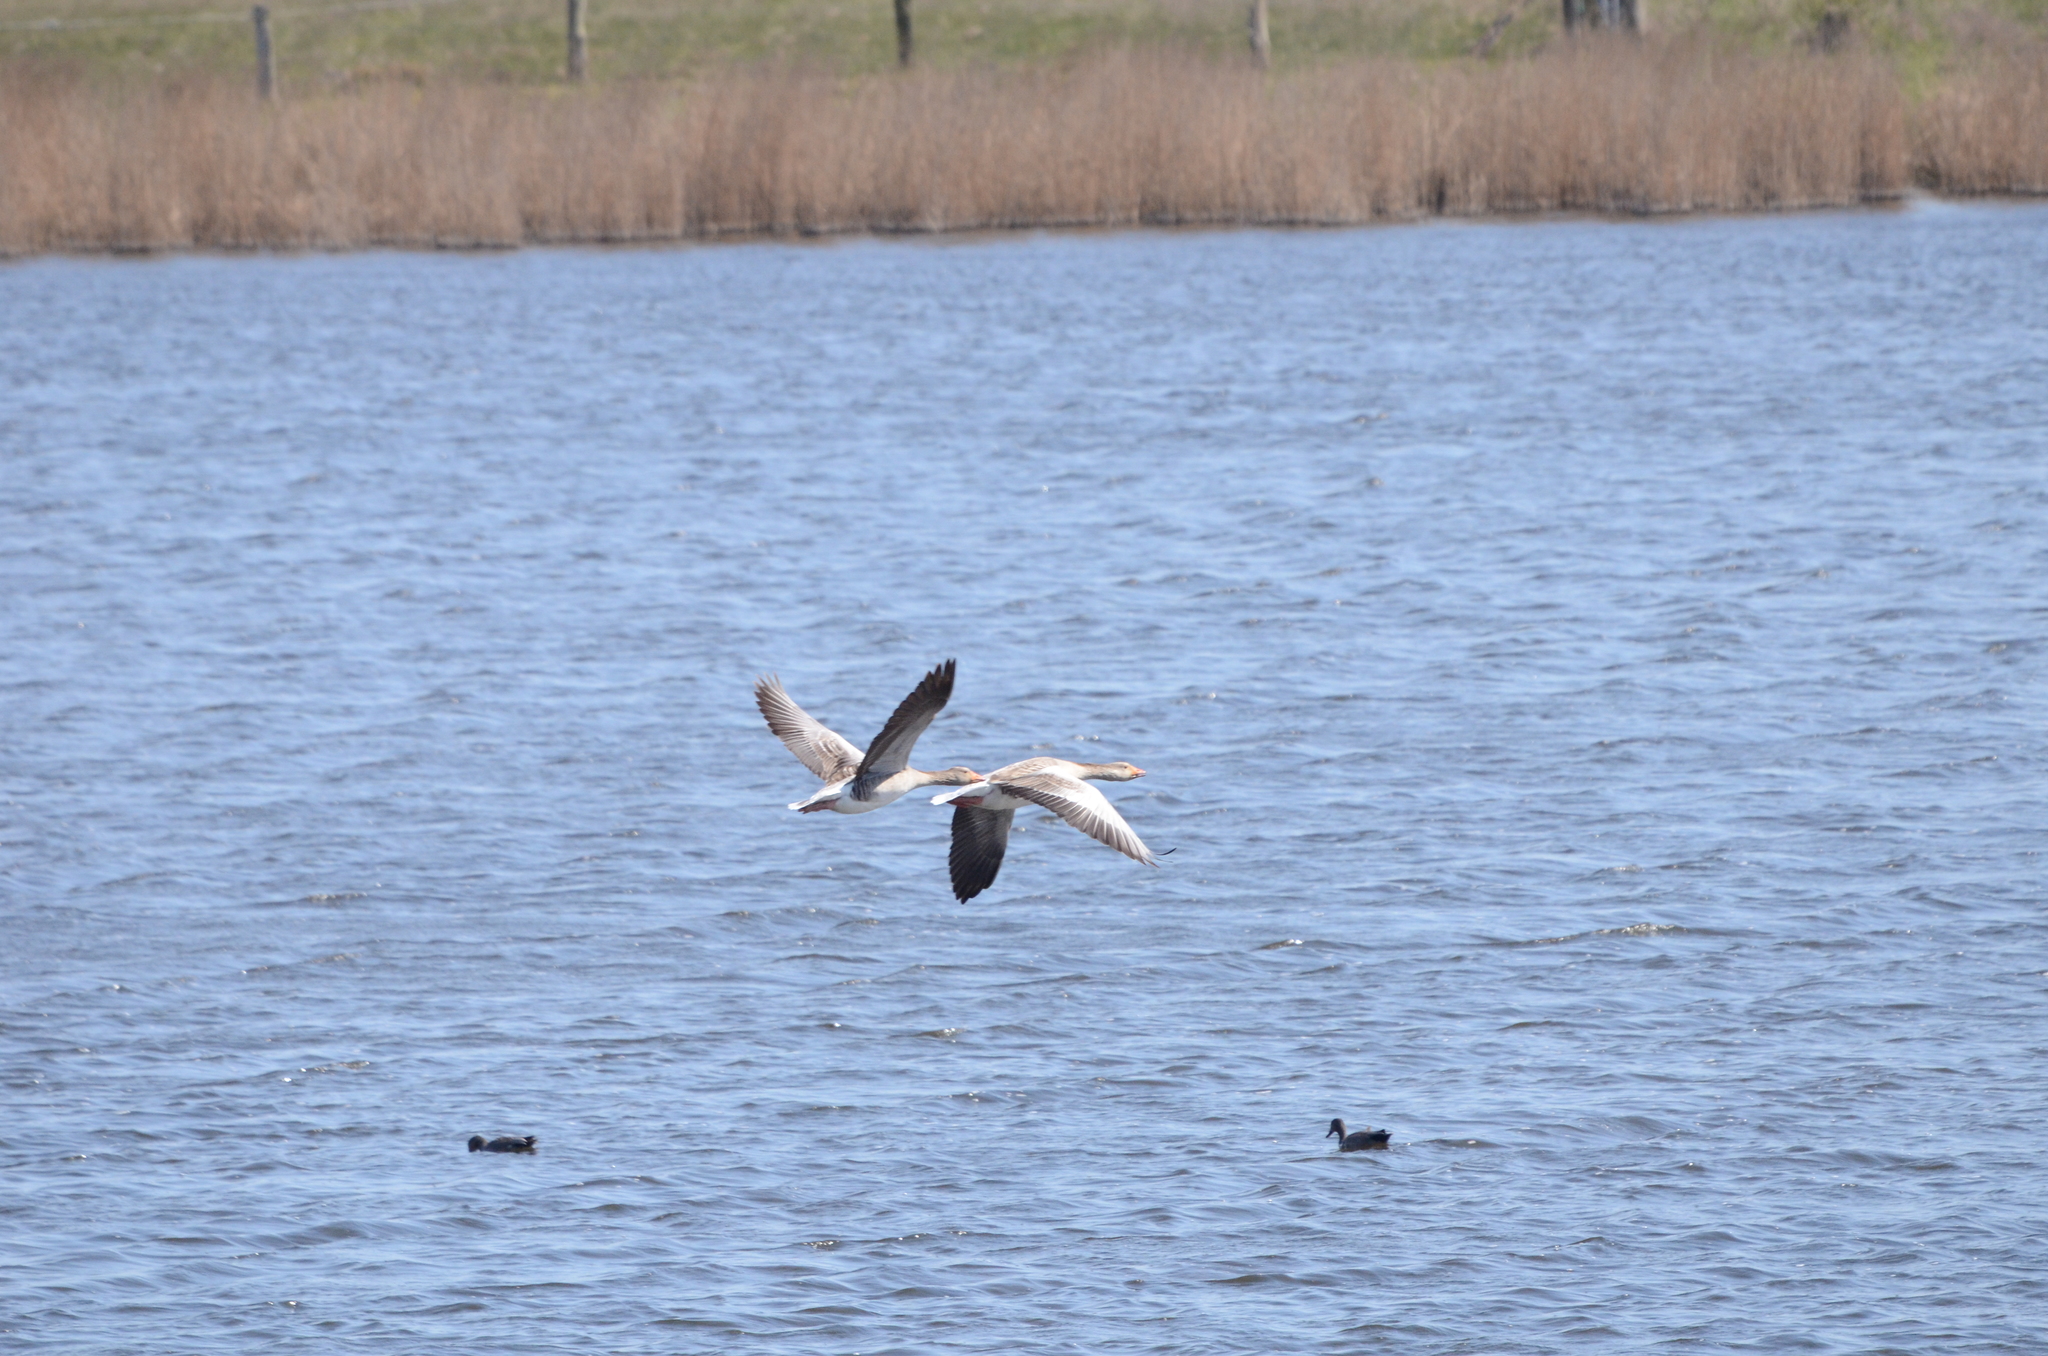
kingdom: Animalia
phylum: Chordata
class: Aves
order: Anseriformes
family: Anatidae
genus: Anser
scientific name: Anser anser
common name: Greylag goose
